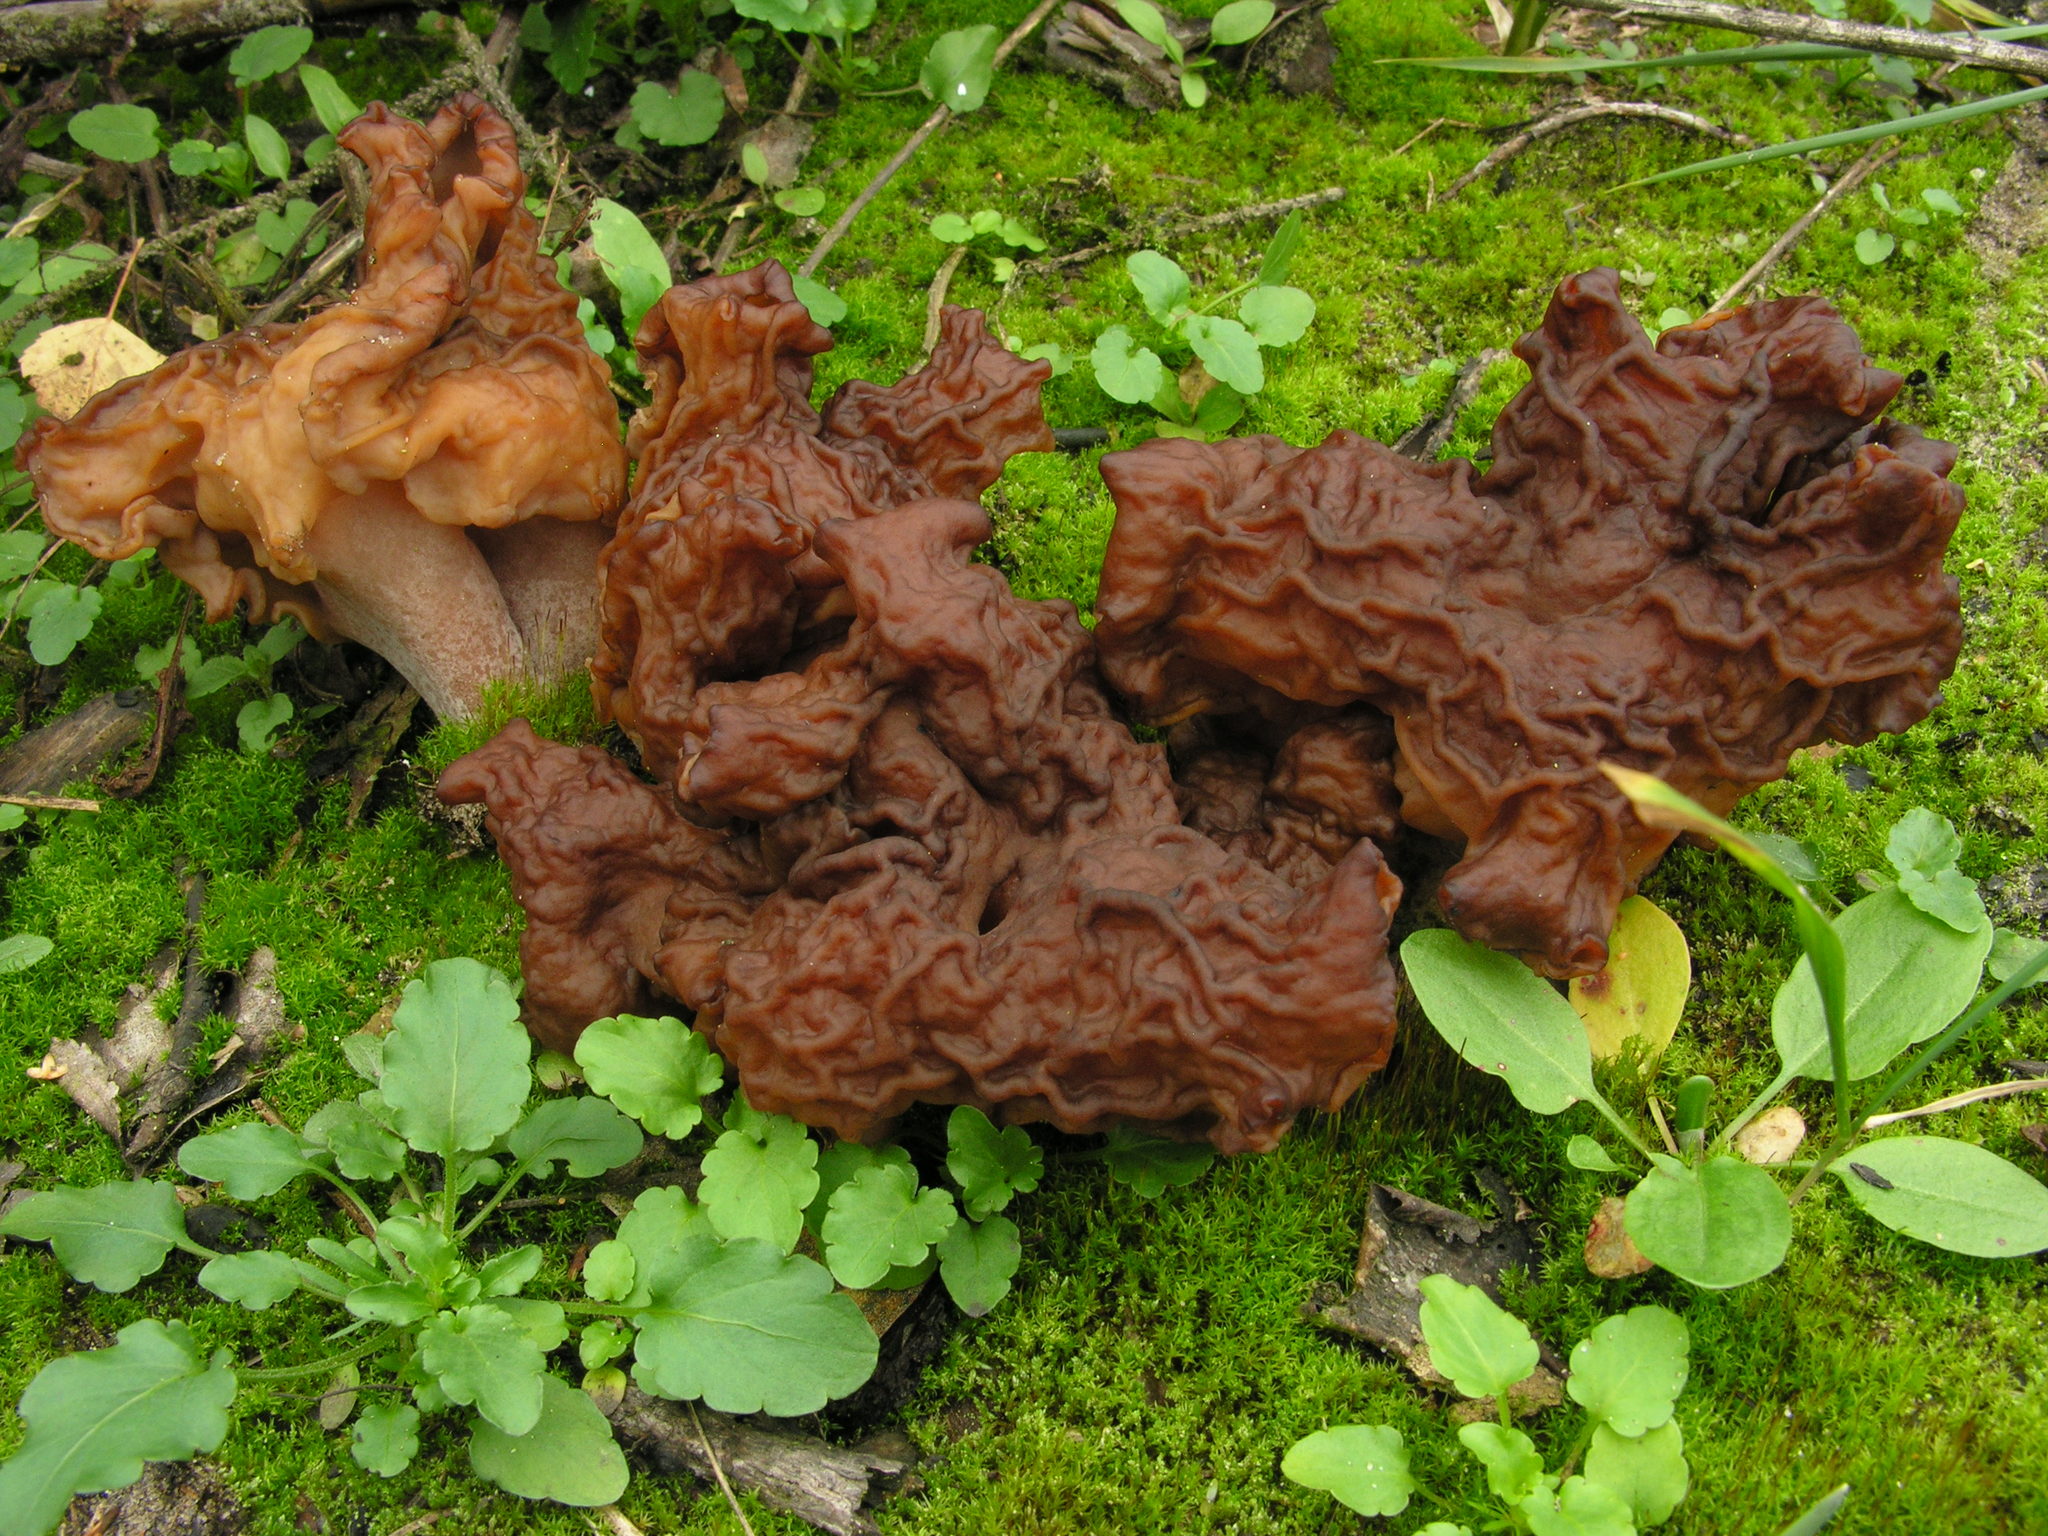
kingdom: Fungi
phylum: Ascomycota
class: Pezizomycetes
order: Pezizales
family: Discinaceae
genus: Gyromitra
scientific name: Gyromitra infula
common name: Pouched false morel
